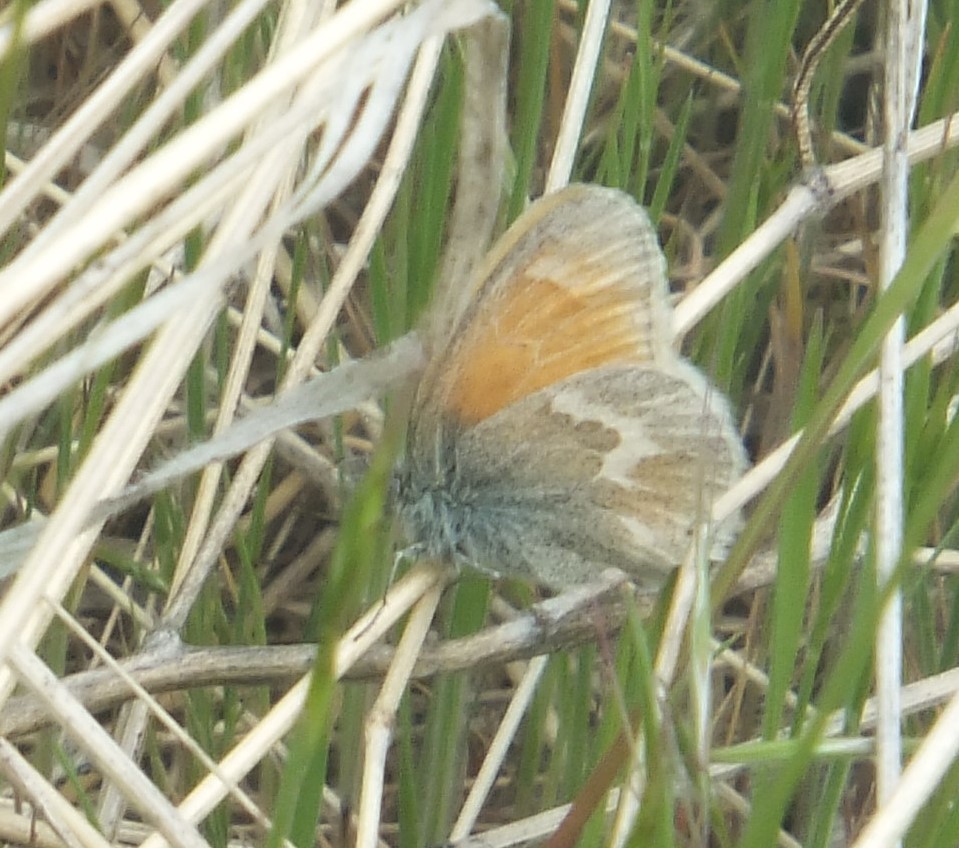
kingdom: Animalia
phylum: Arthropoda
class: Insecta
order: Lepidoptera
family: Nymphalidae
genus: Coenonympha
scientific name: Coenonympha california
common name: Common ringlet
